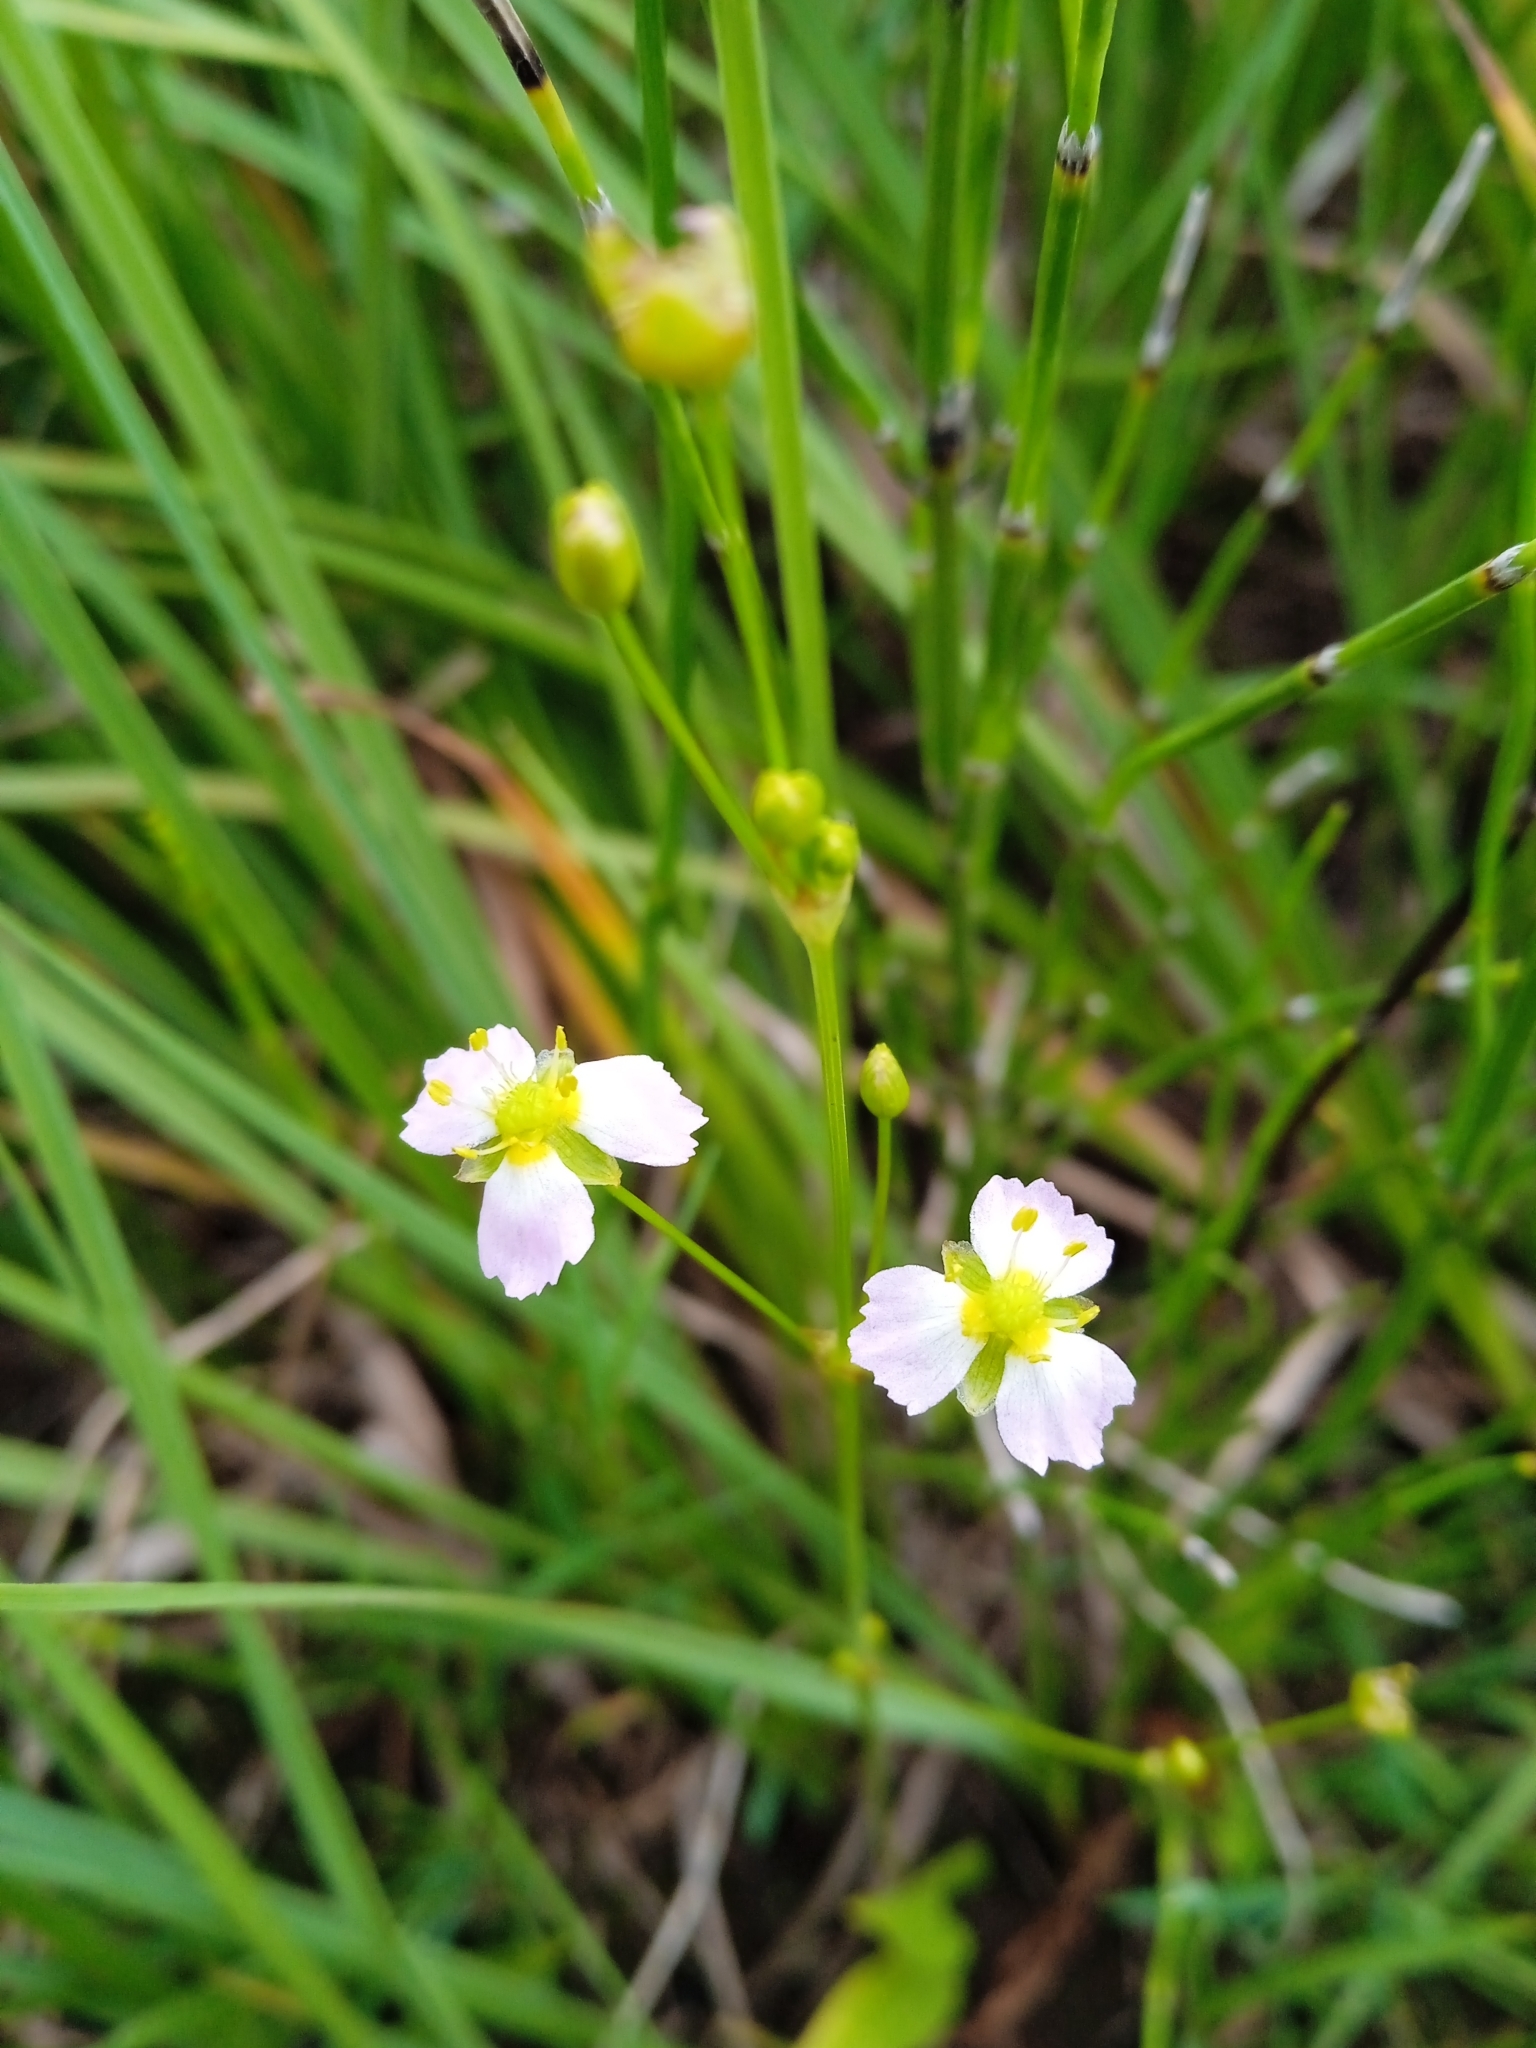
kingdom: Plantae
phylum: Tracheophyta
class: Liliopsida
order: Alismatales
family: Alismataceae
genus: Alisma
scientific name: Alisma plantago-aquatica
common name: Water-plantain
